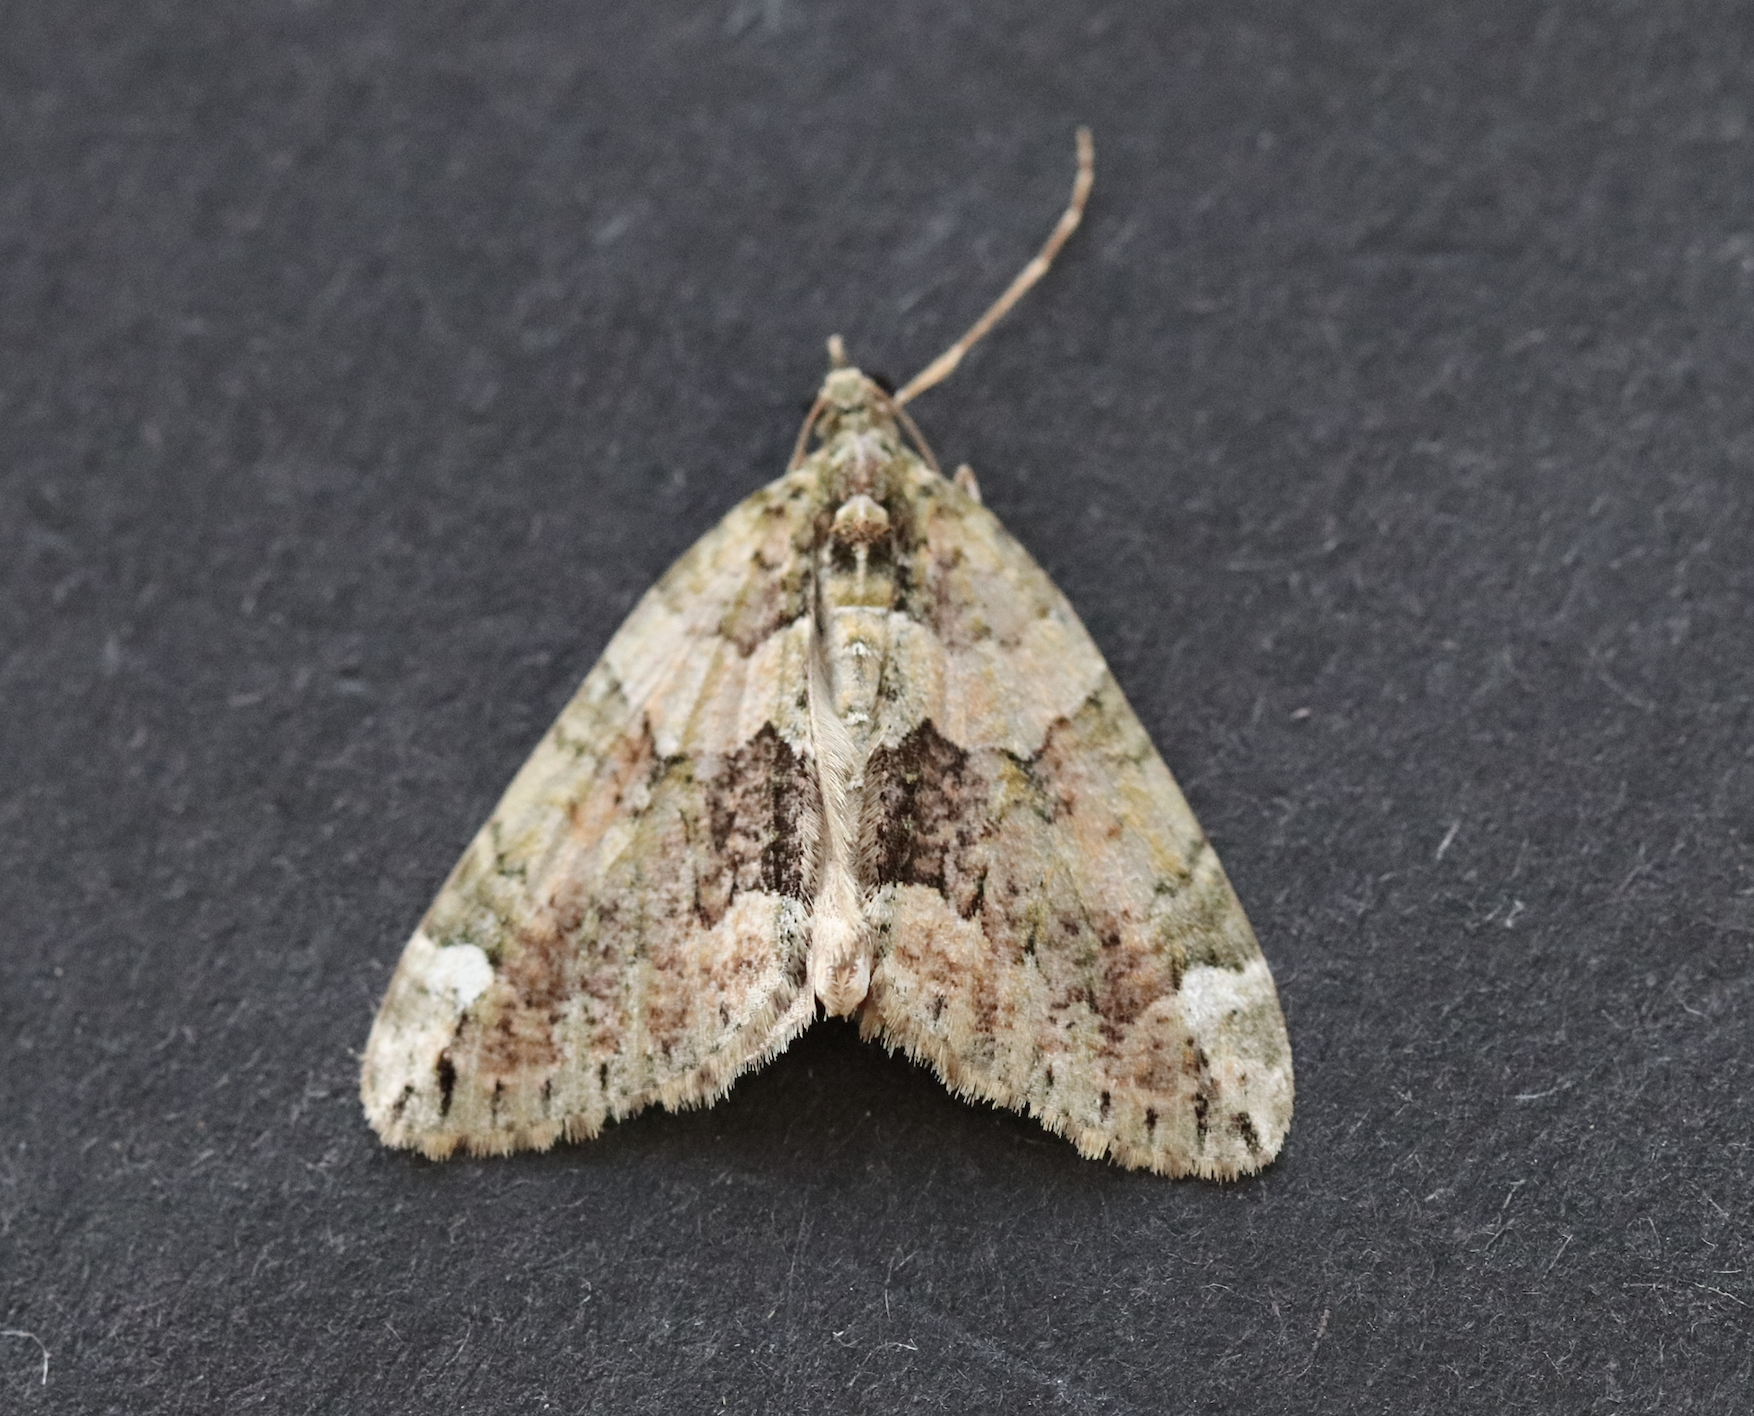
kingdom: Animalia
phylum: Arthropoda
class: Insecta
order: Lepidoptera
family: Geometridae
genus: Chloroclysta
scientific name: Chloroclysta siterata
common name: Red-green carpet
